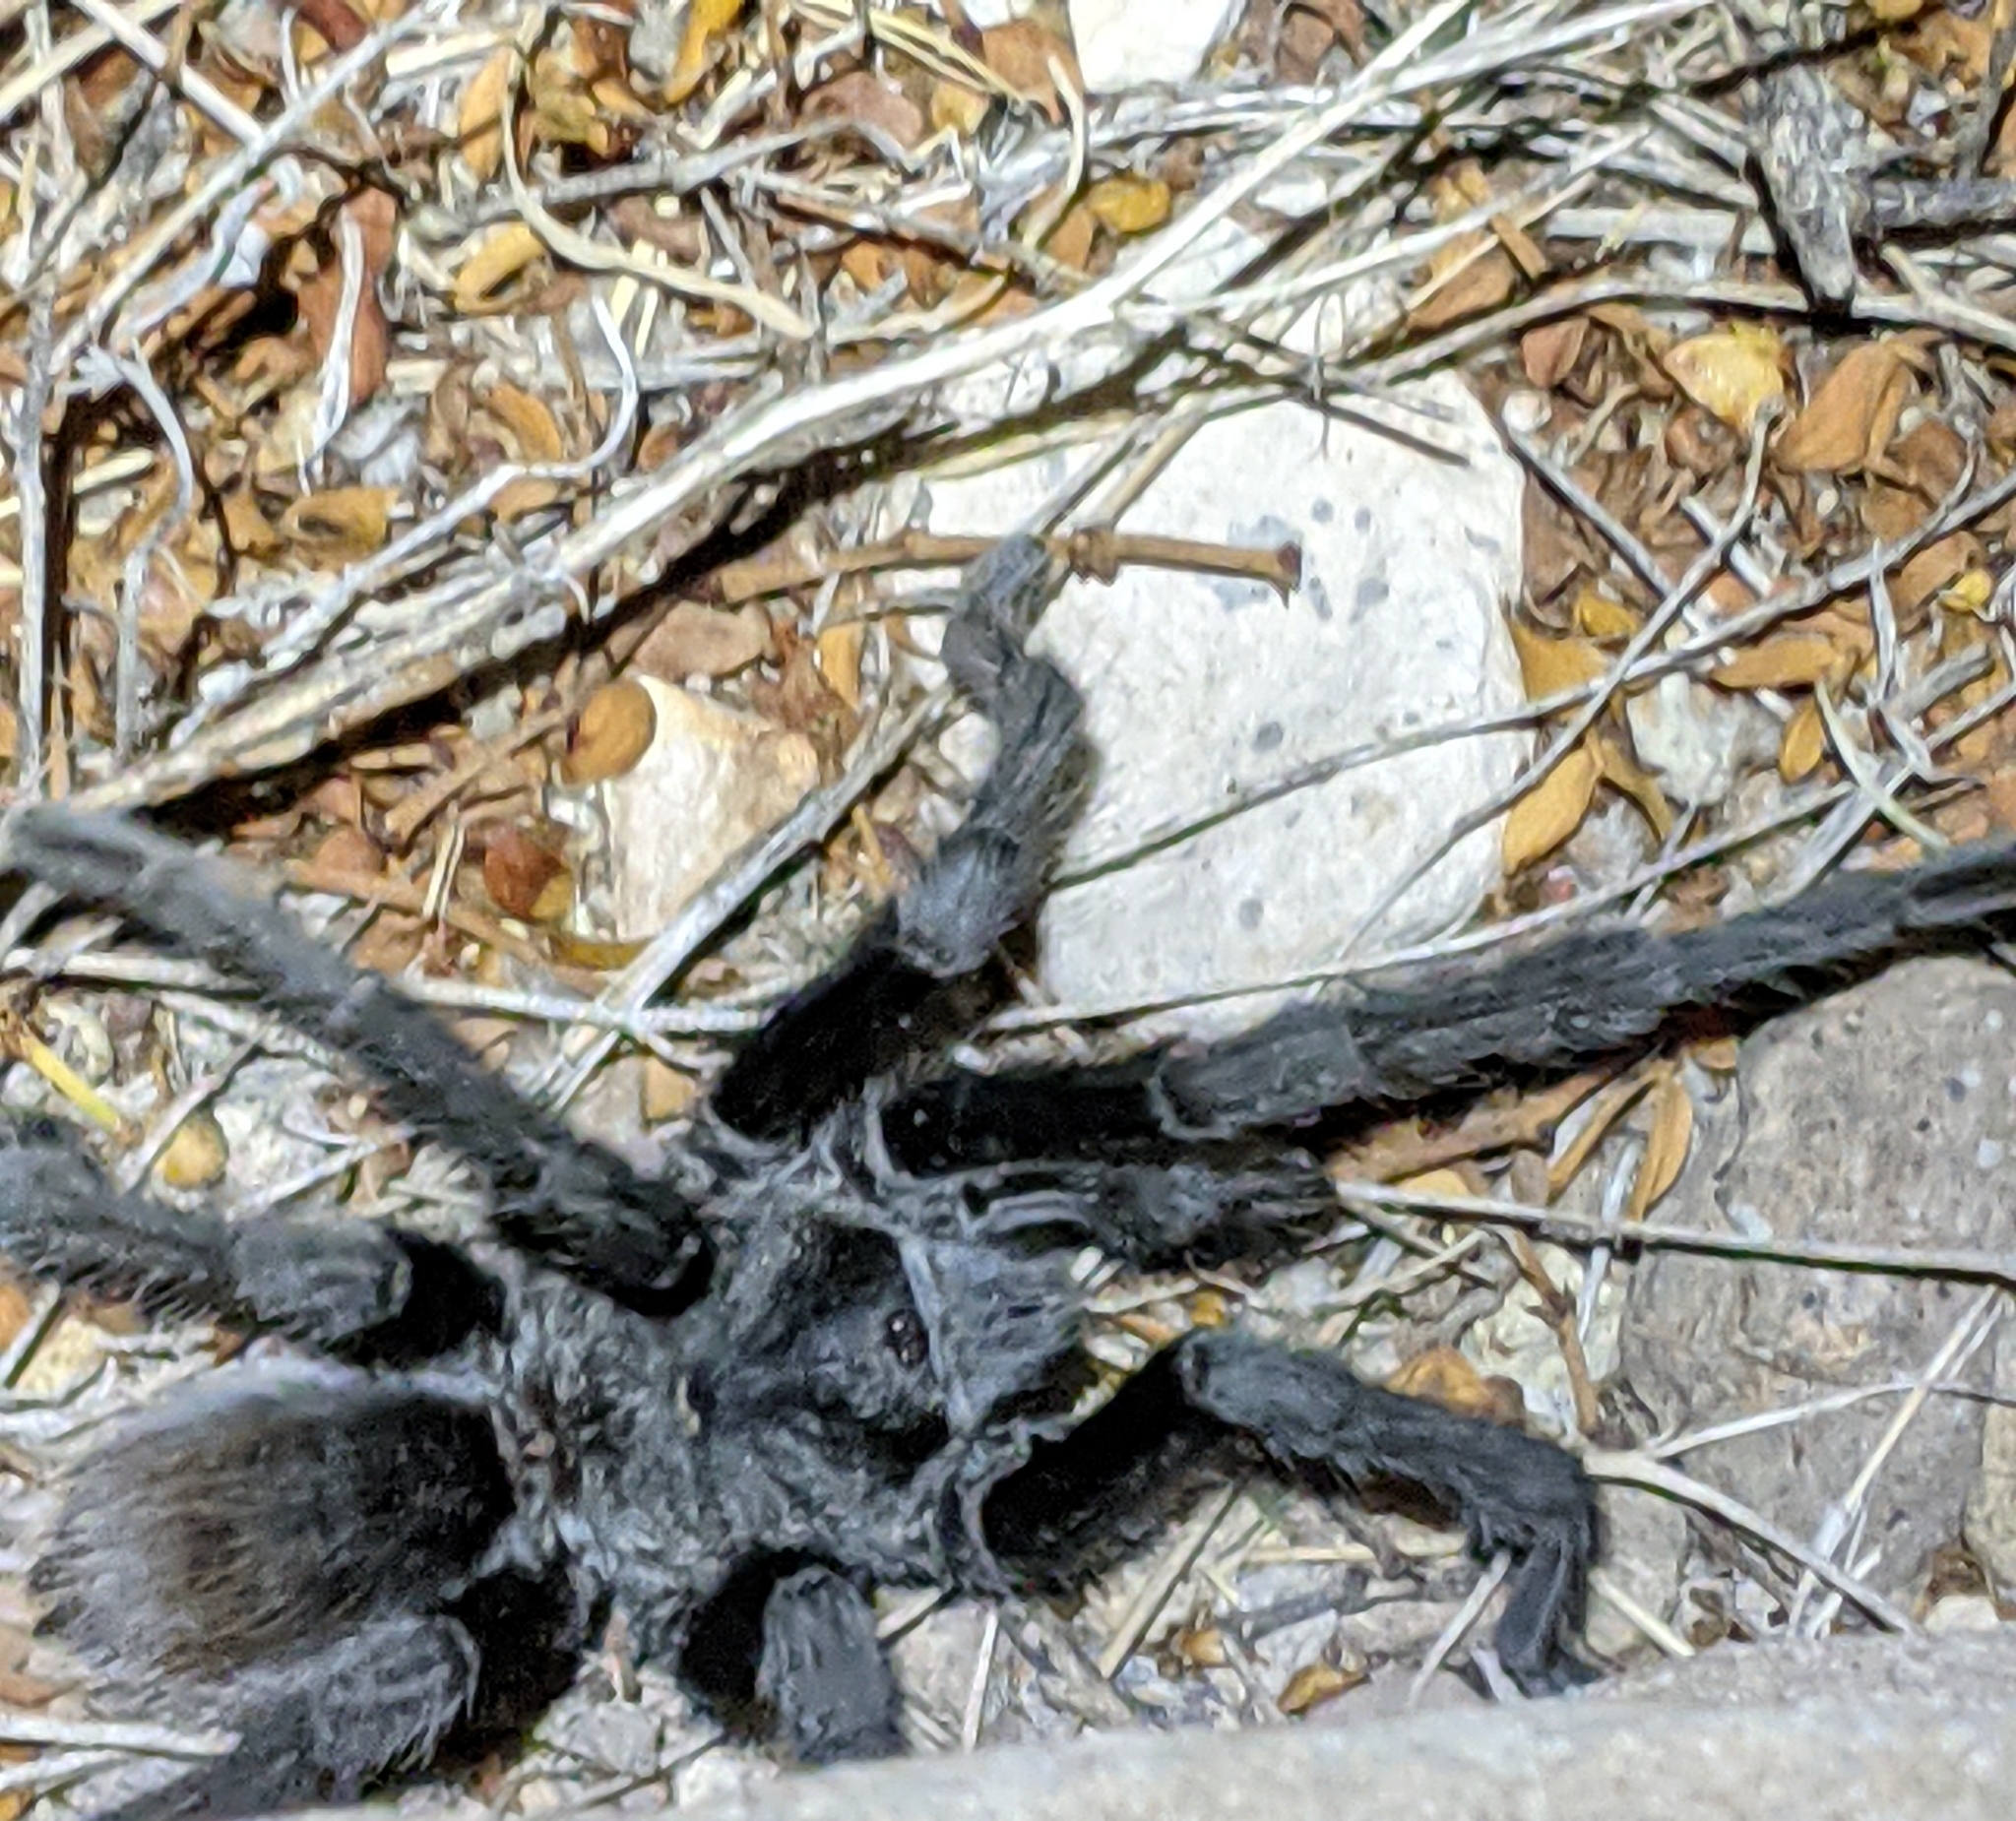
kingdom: Animalia
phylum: Arthropoda
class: Arachnida
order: Araneae
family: Theraphosidae
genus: Aphonopelma
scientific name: Aphonopelma gabeli
